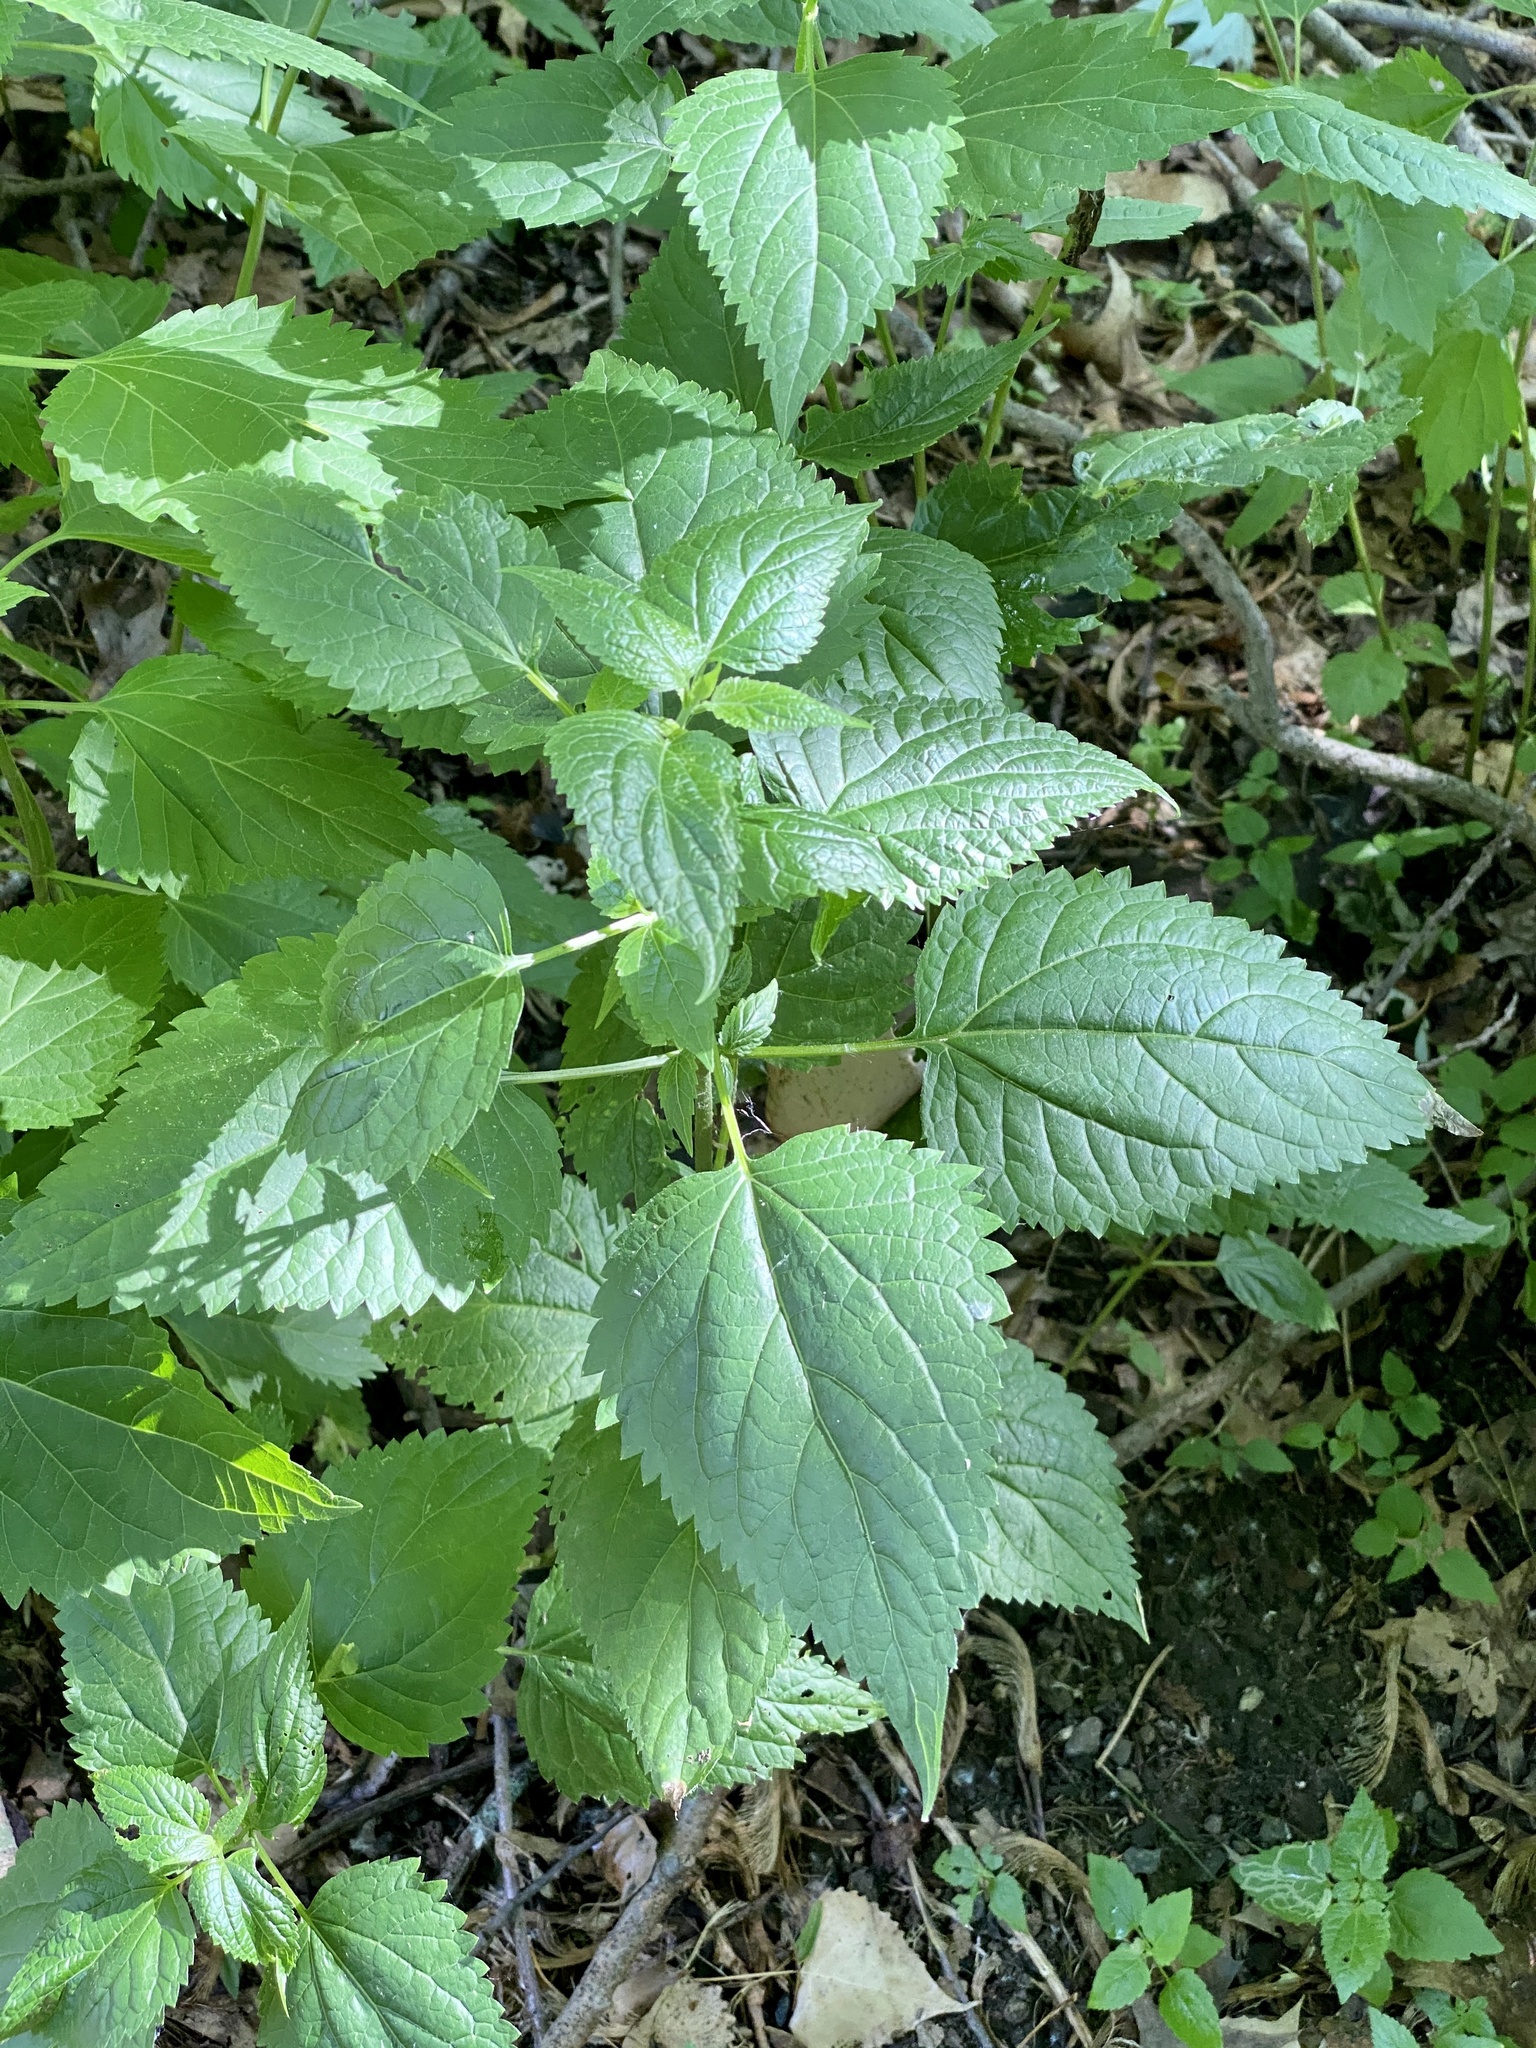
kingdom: Plantae
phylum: Tracheophyta
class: Magnoliopsida
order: Asterales
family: Asteraceae
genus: Ageratina
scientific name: Ageratina altissima
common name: White snakeroot
